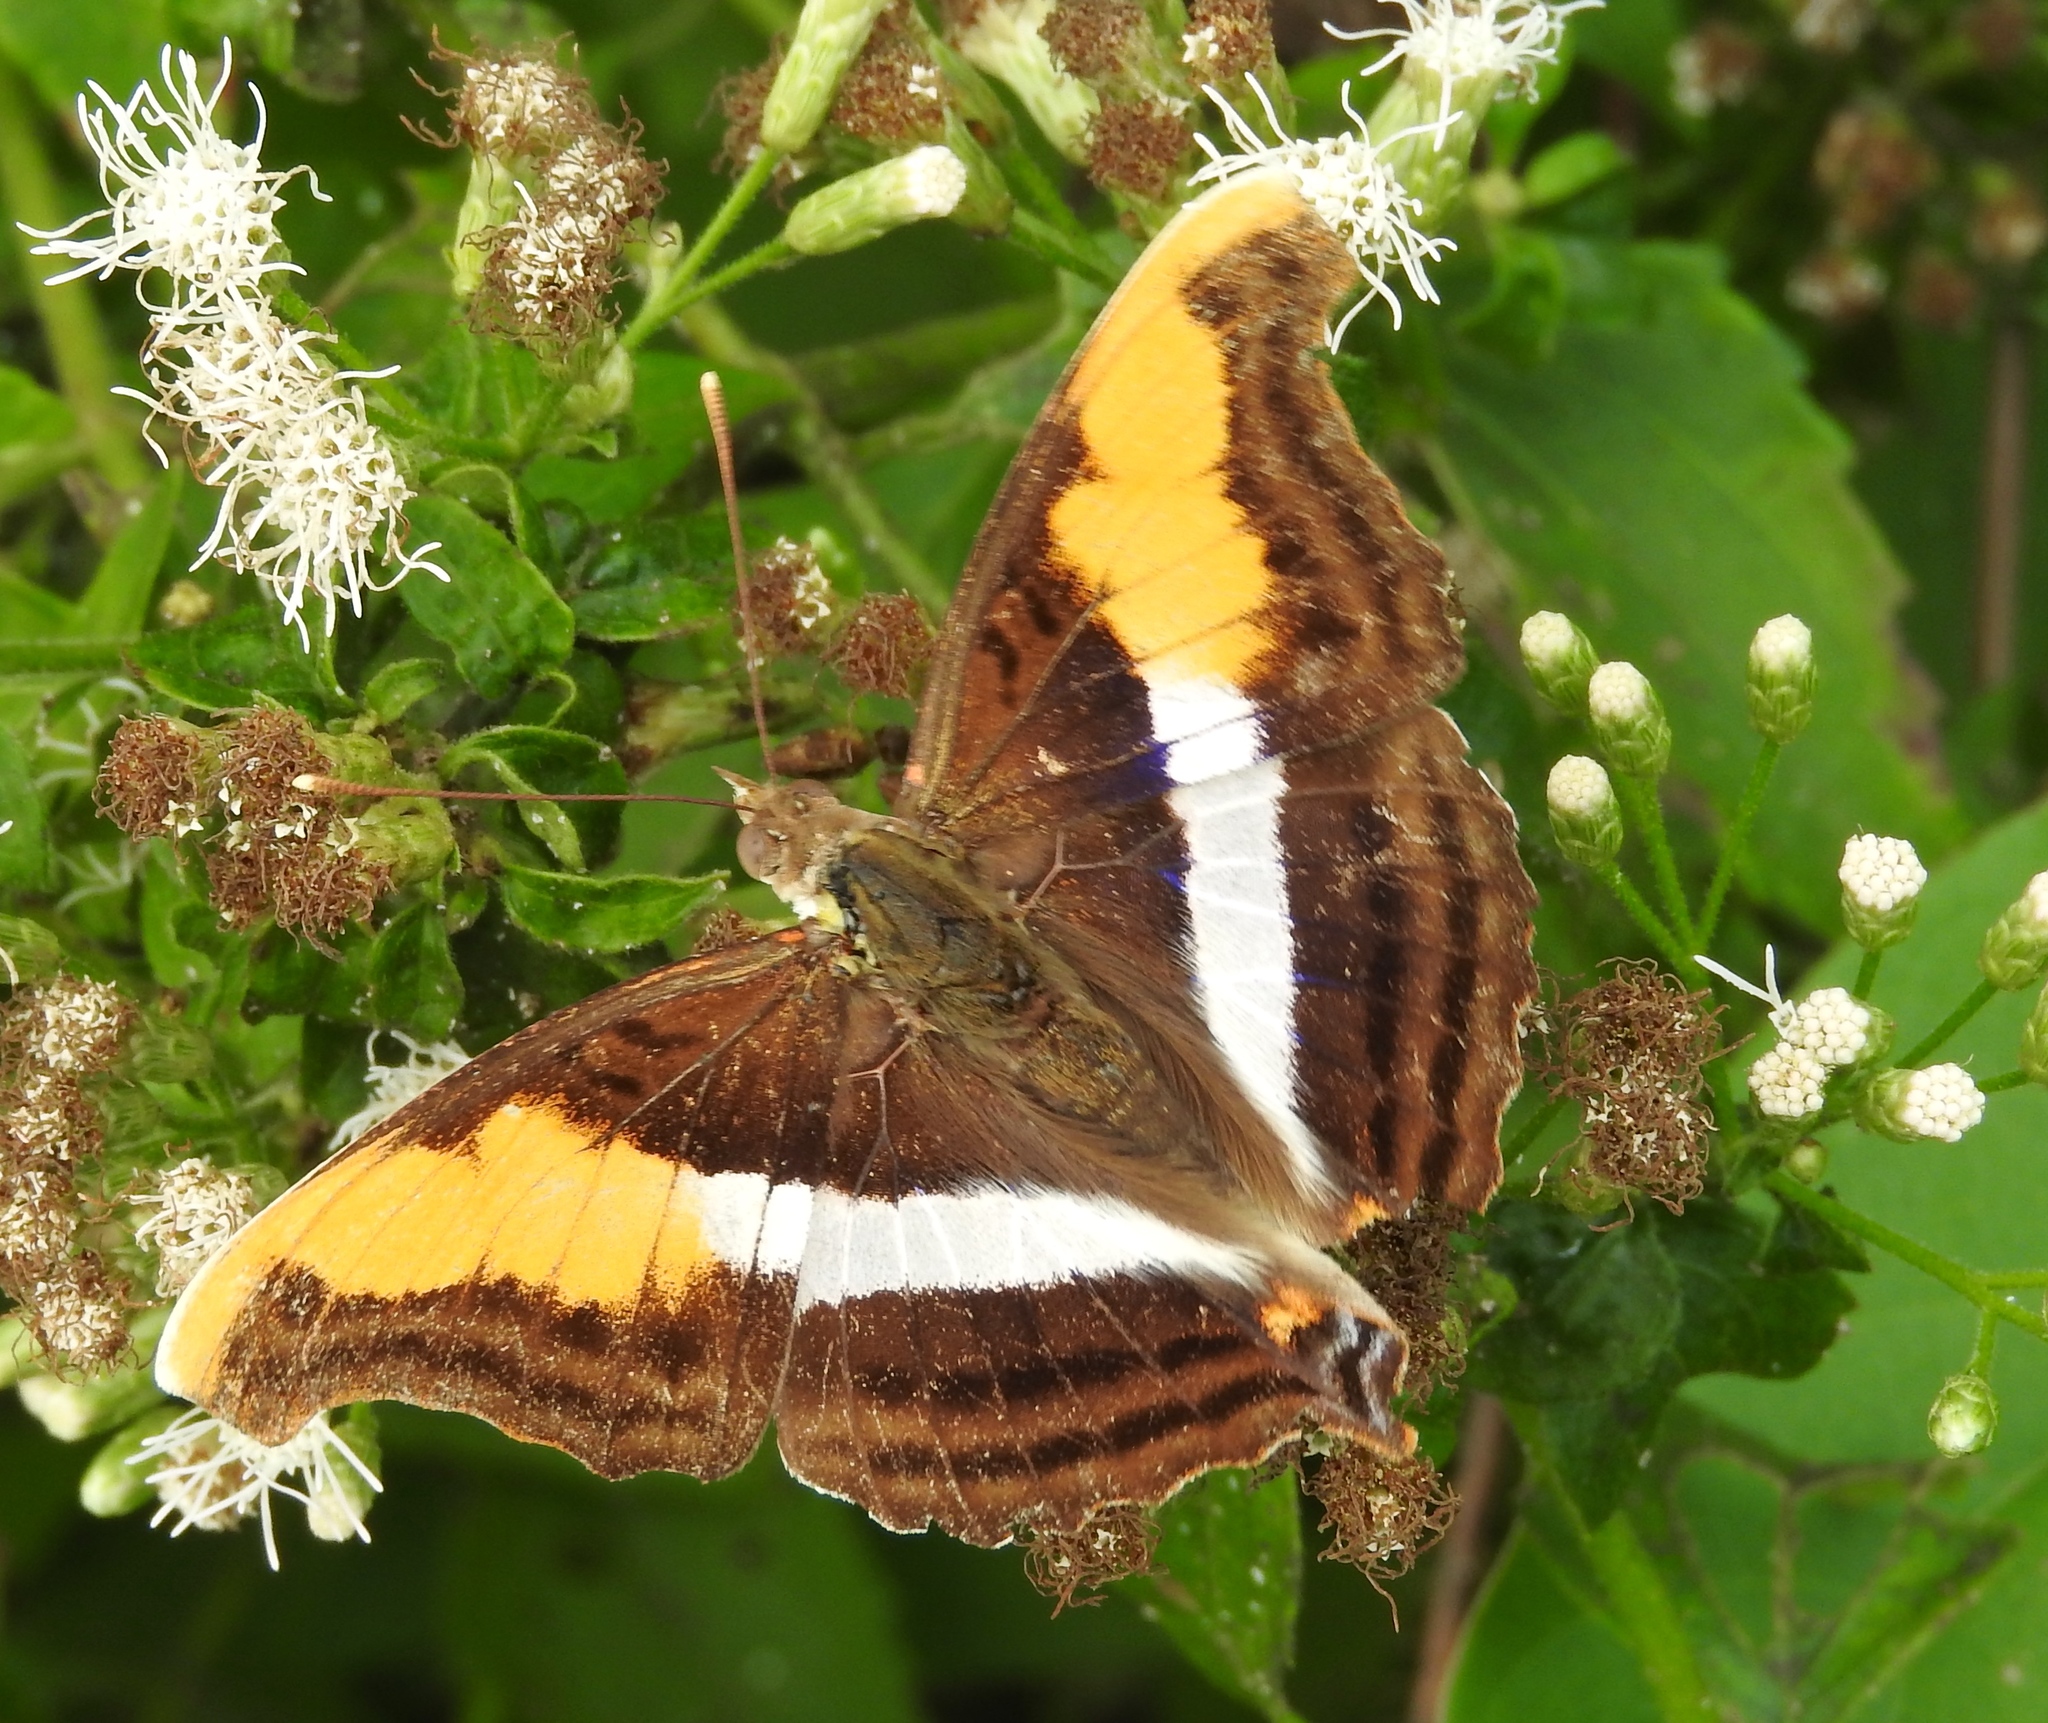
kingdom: Animalia
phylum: Arthropoda
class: Insecta
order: Lepidoptera
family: Nymphalidae
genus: Doxocopa
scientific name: Doxocopa laure
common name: Silver emperor
